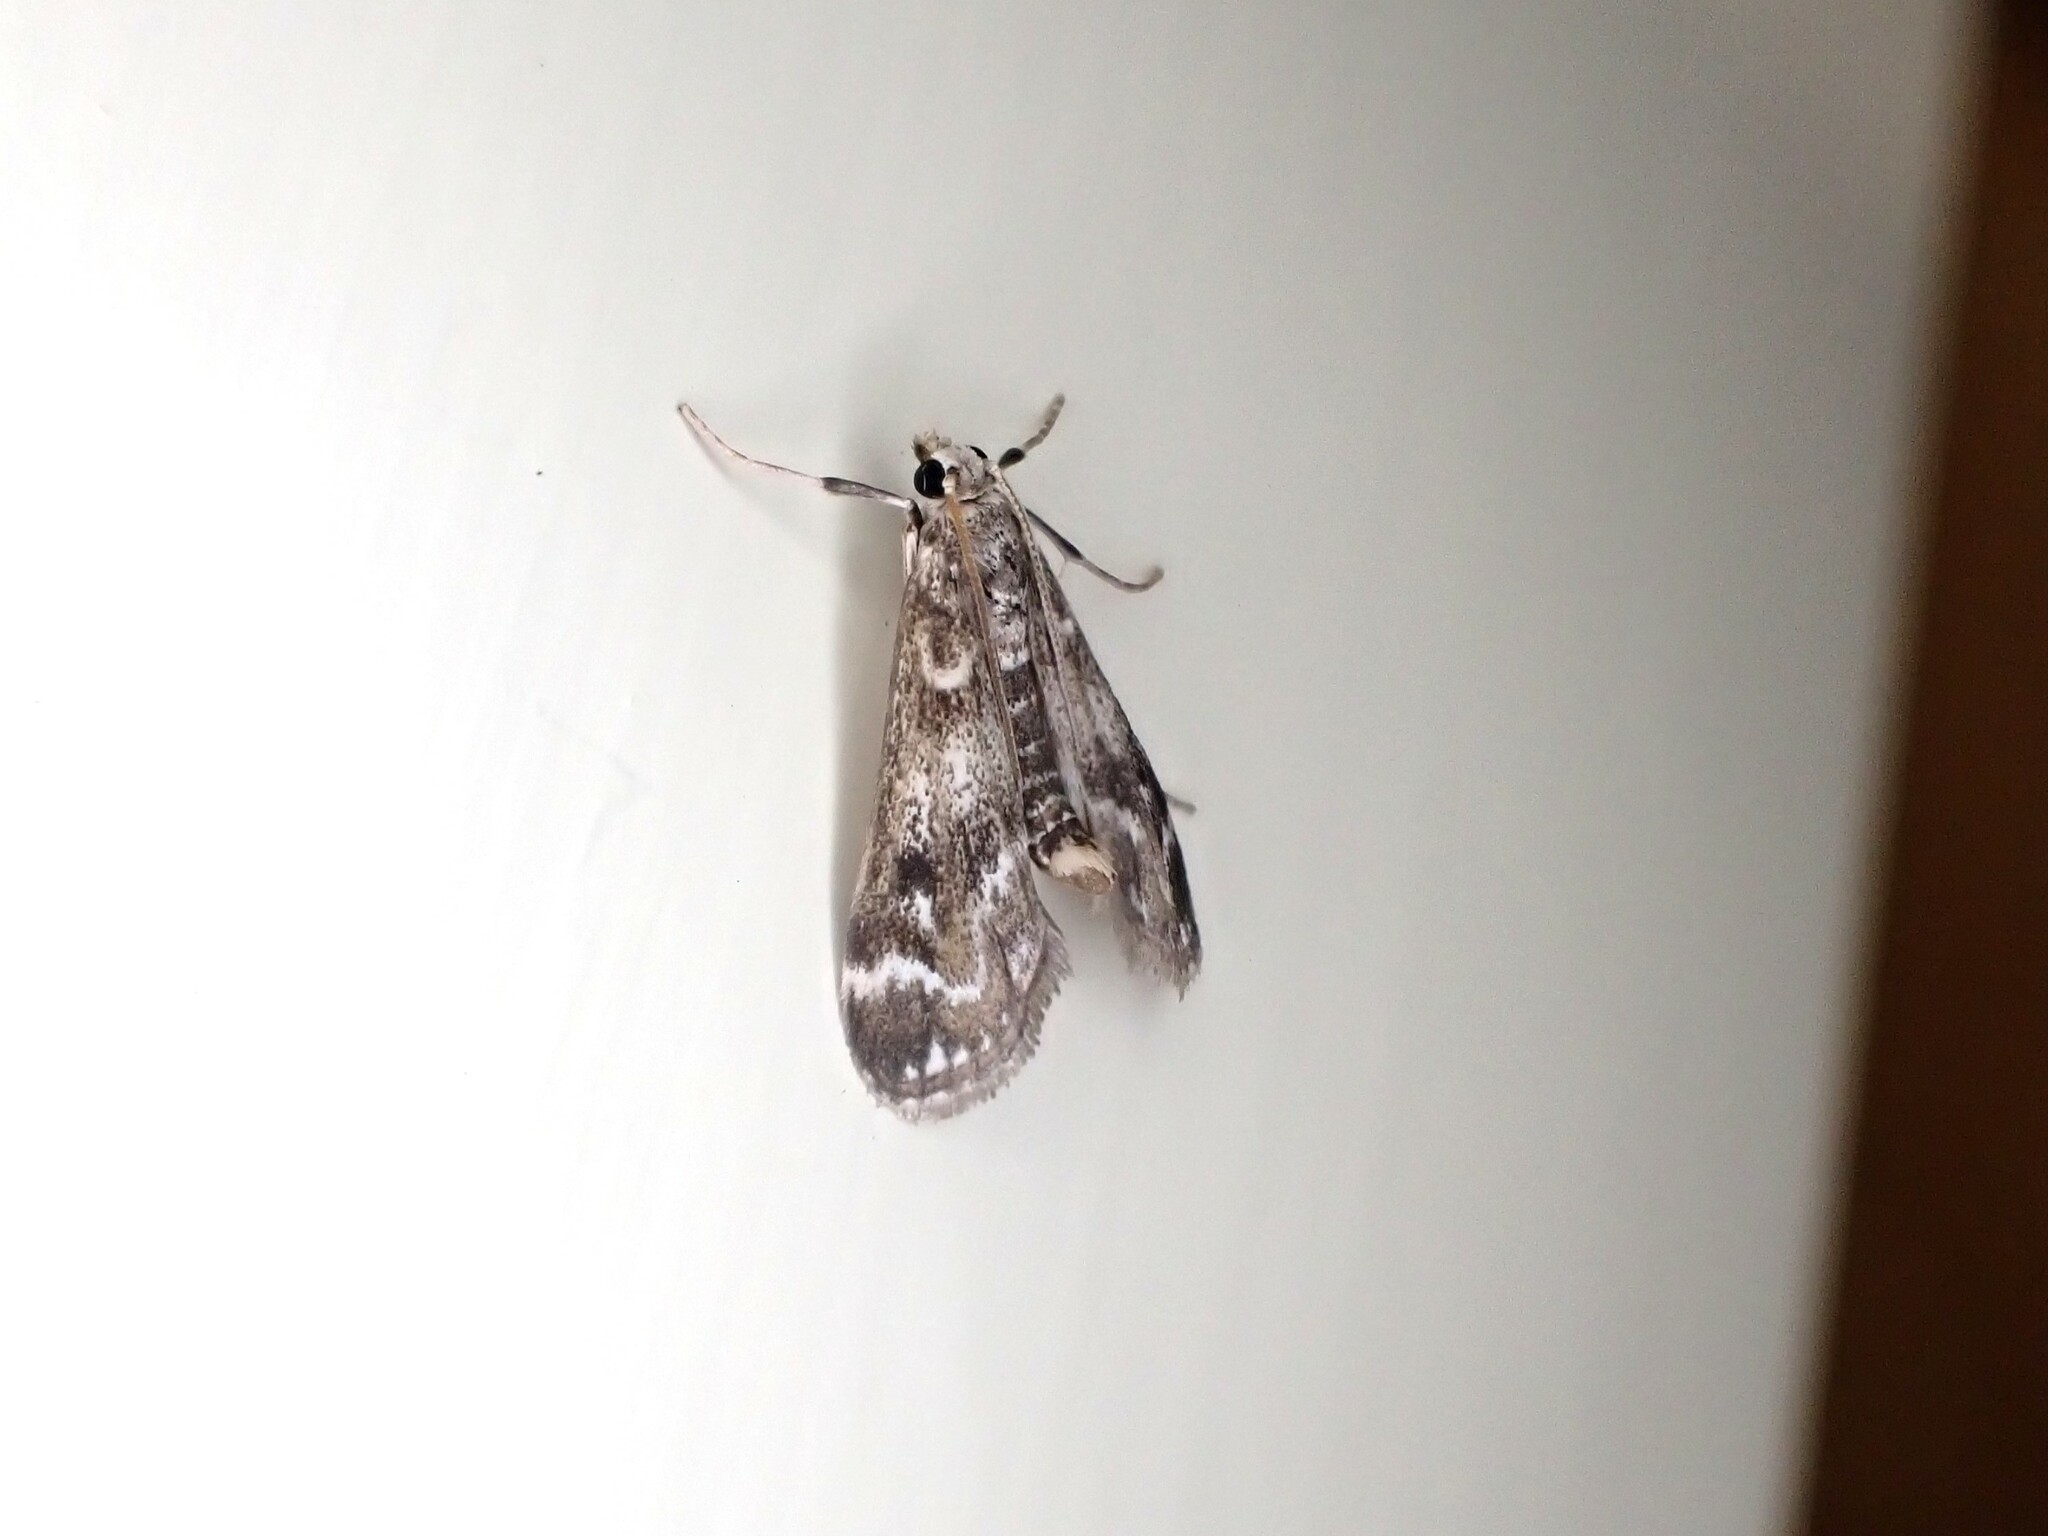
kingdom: Animalia
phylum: Arthropoda
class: Insecta
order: Lepidoptera
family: Crambidae
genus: Hygraula
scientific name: Hygraula nitens
